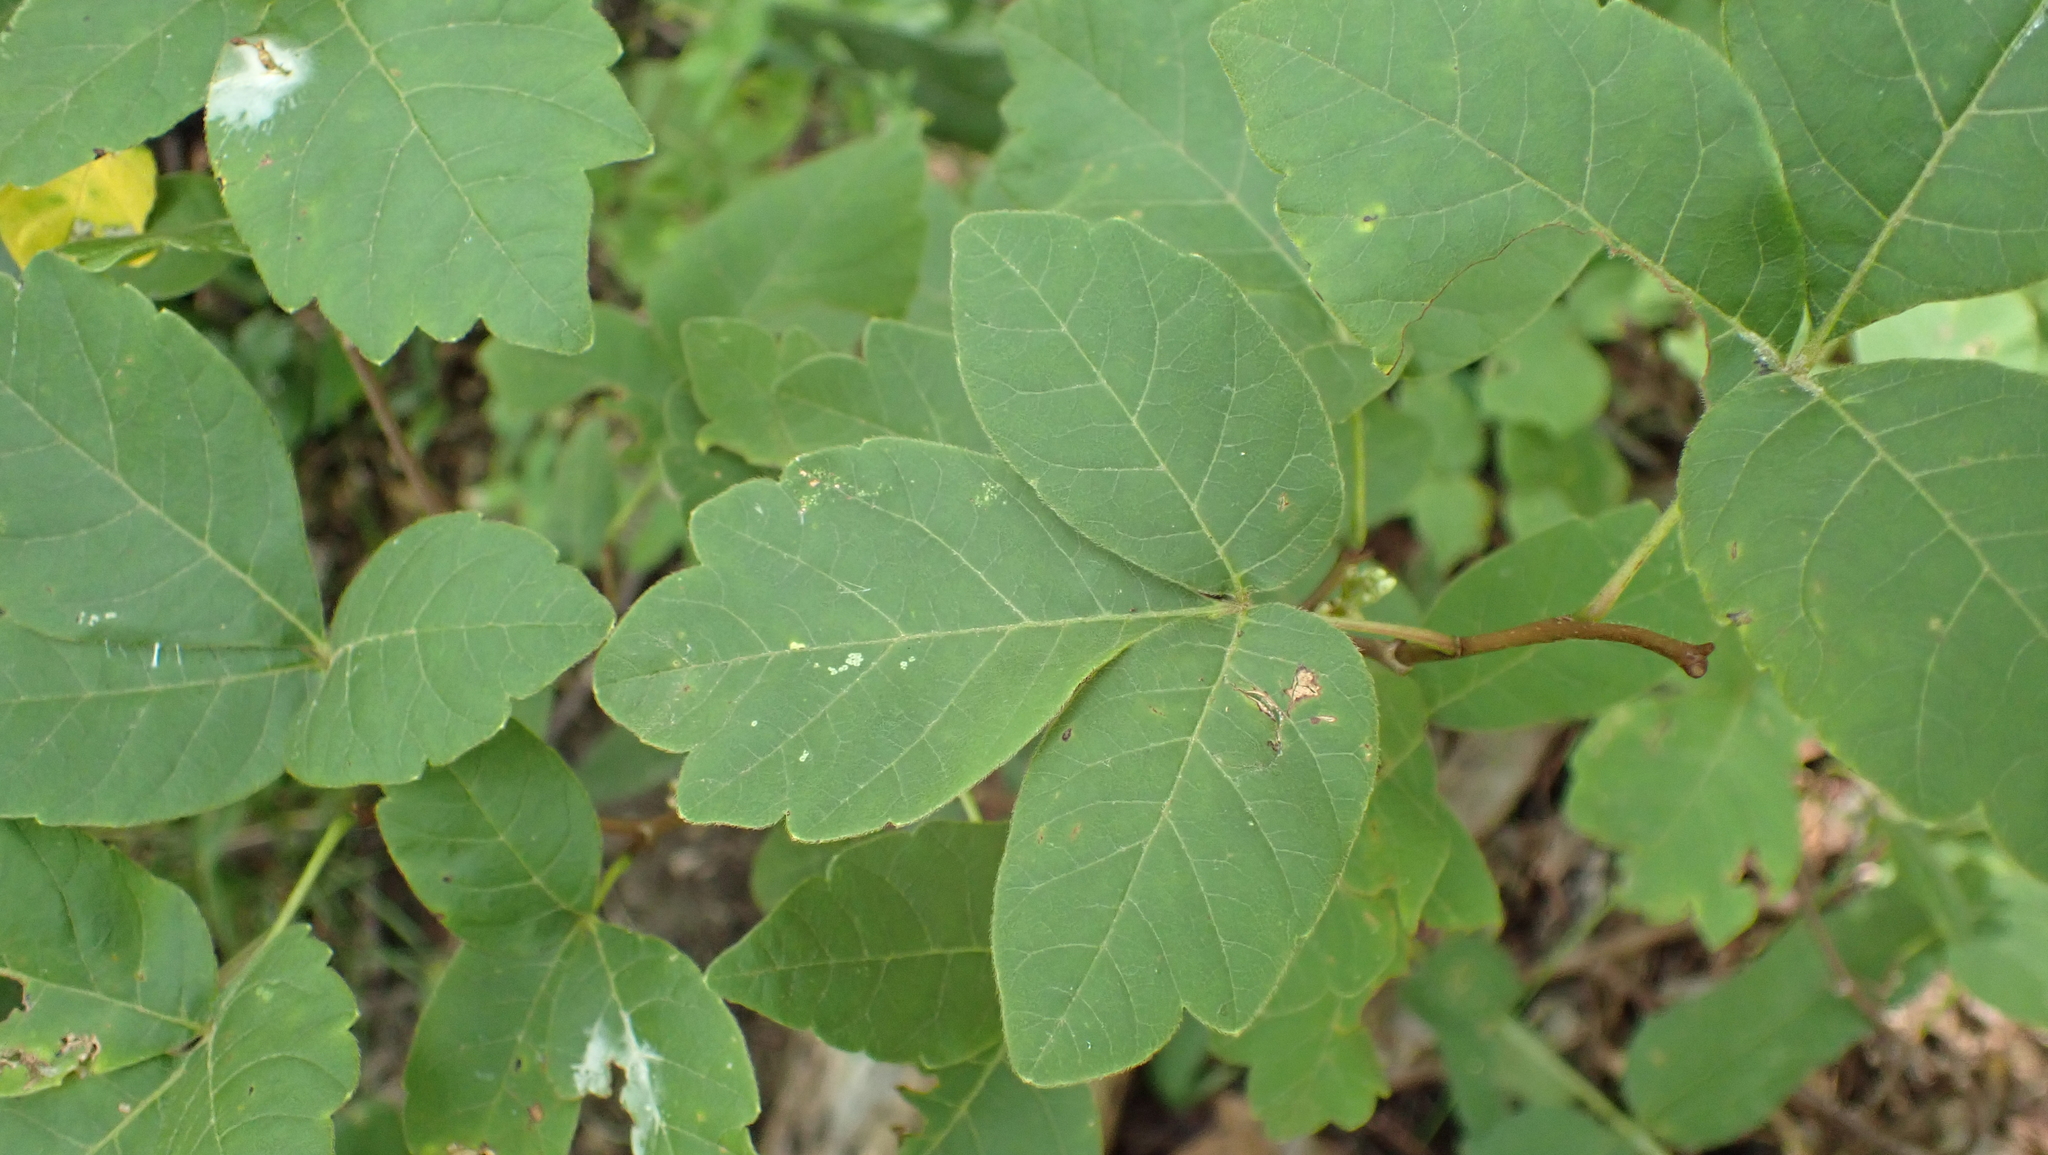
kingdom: Plantae
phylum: Tracheophyta
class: Magnoliopsida
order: Sapindales
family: Anacardiaceae
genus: Rhus
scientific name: Rhus aromatica
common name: Aromatic sumac
